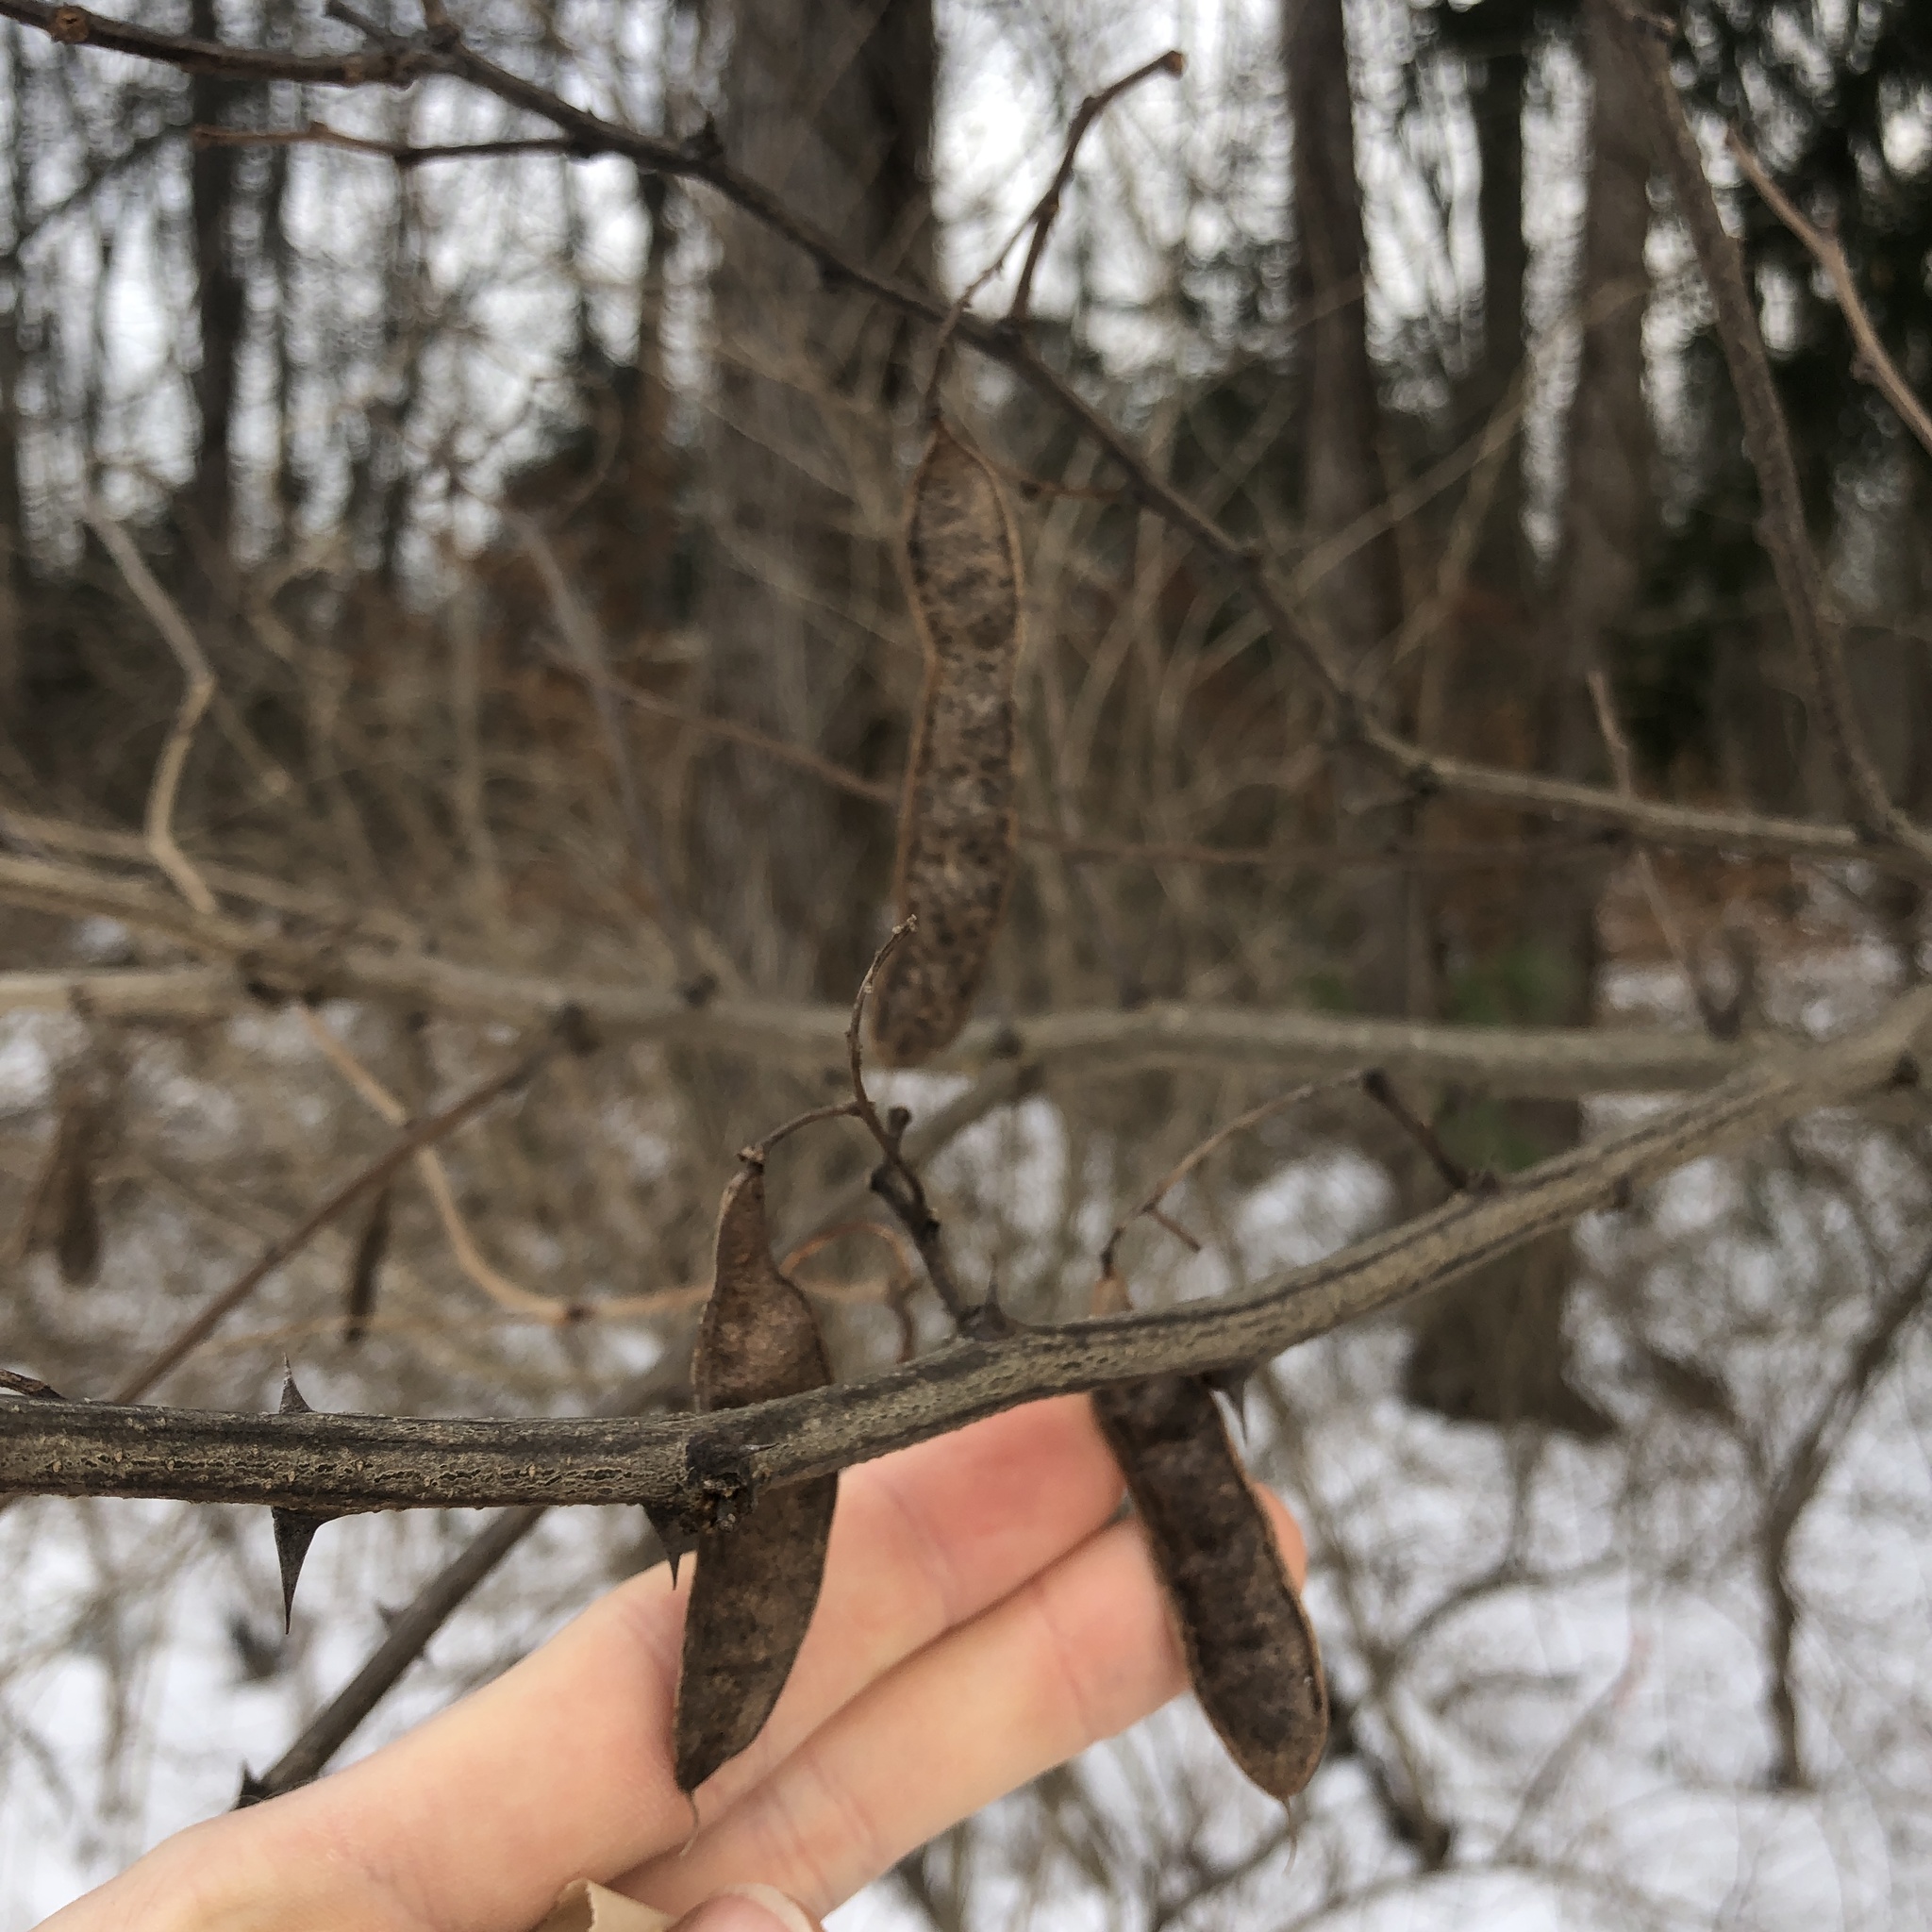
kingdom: Plantae
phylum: Tracheophyta
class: Magnoliopsida
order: Fabales
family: Fabaceae
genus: Robinia
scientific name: Robinia pseudoacacia
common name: Black locust
